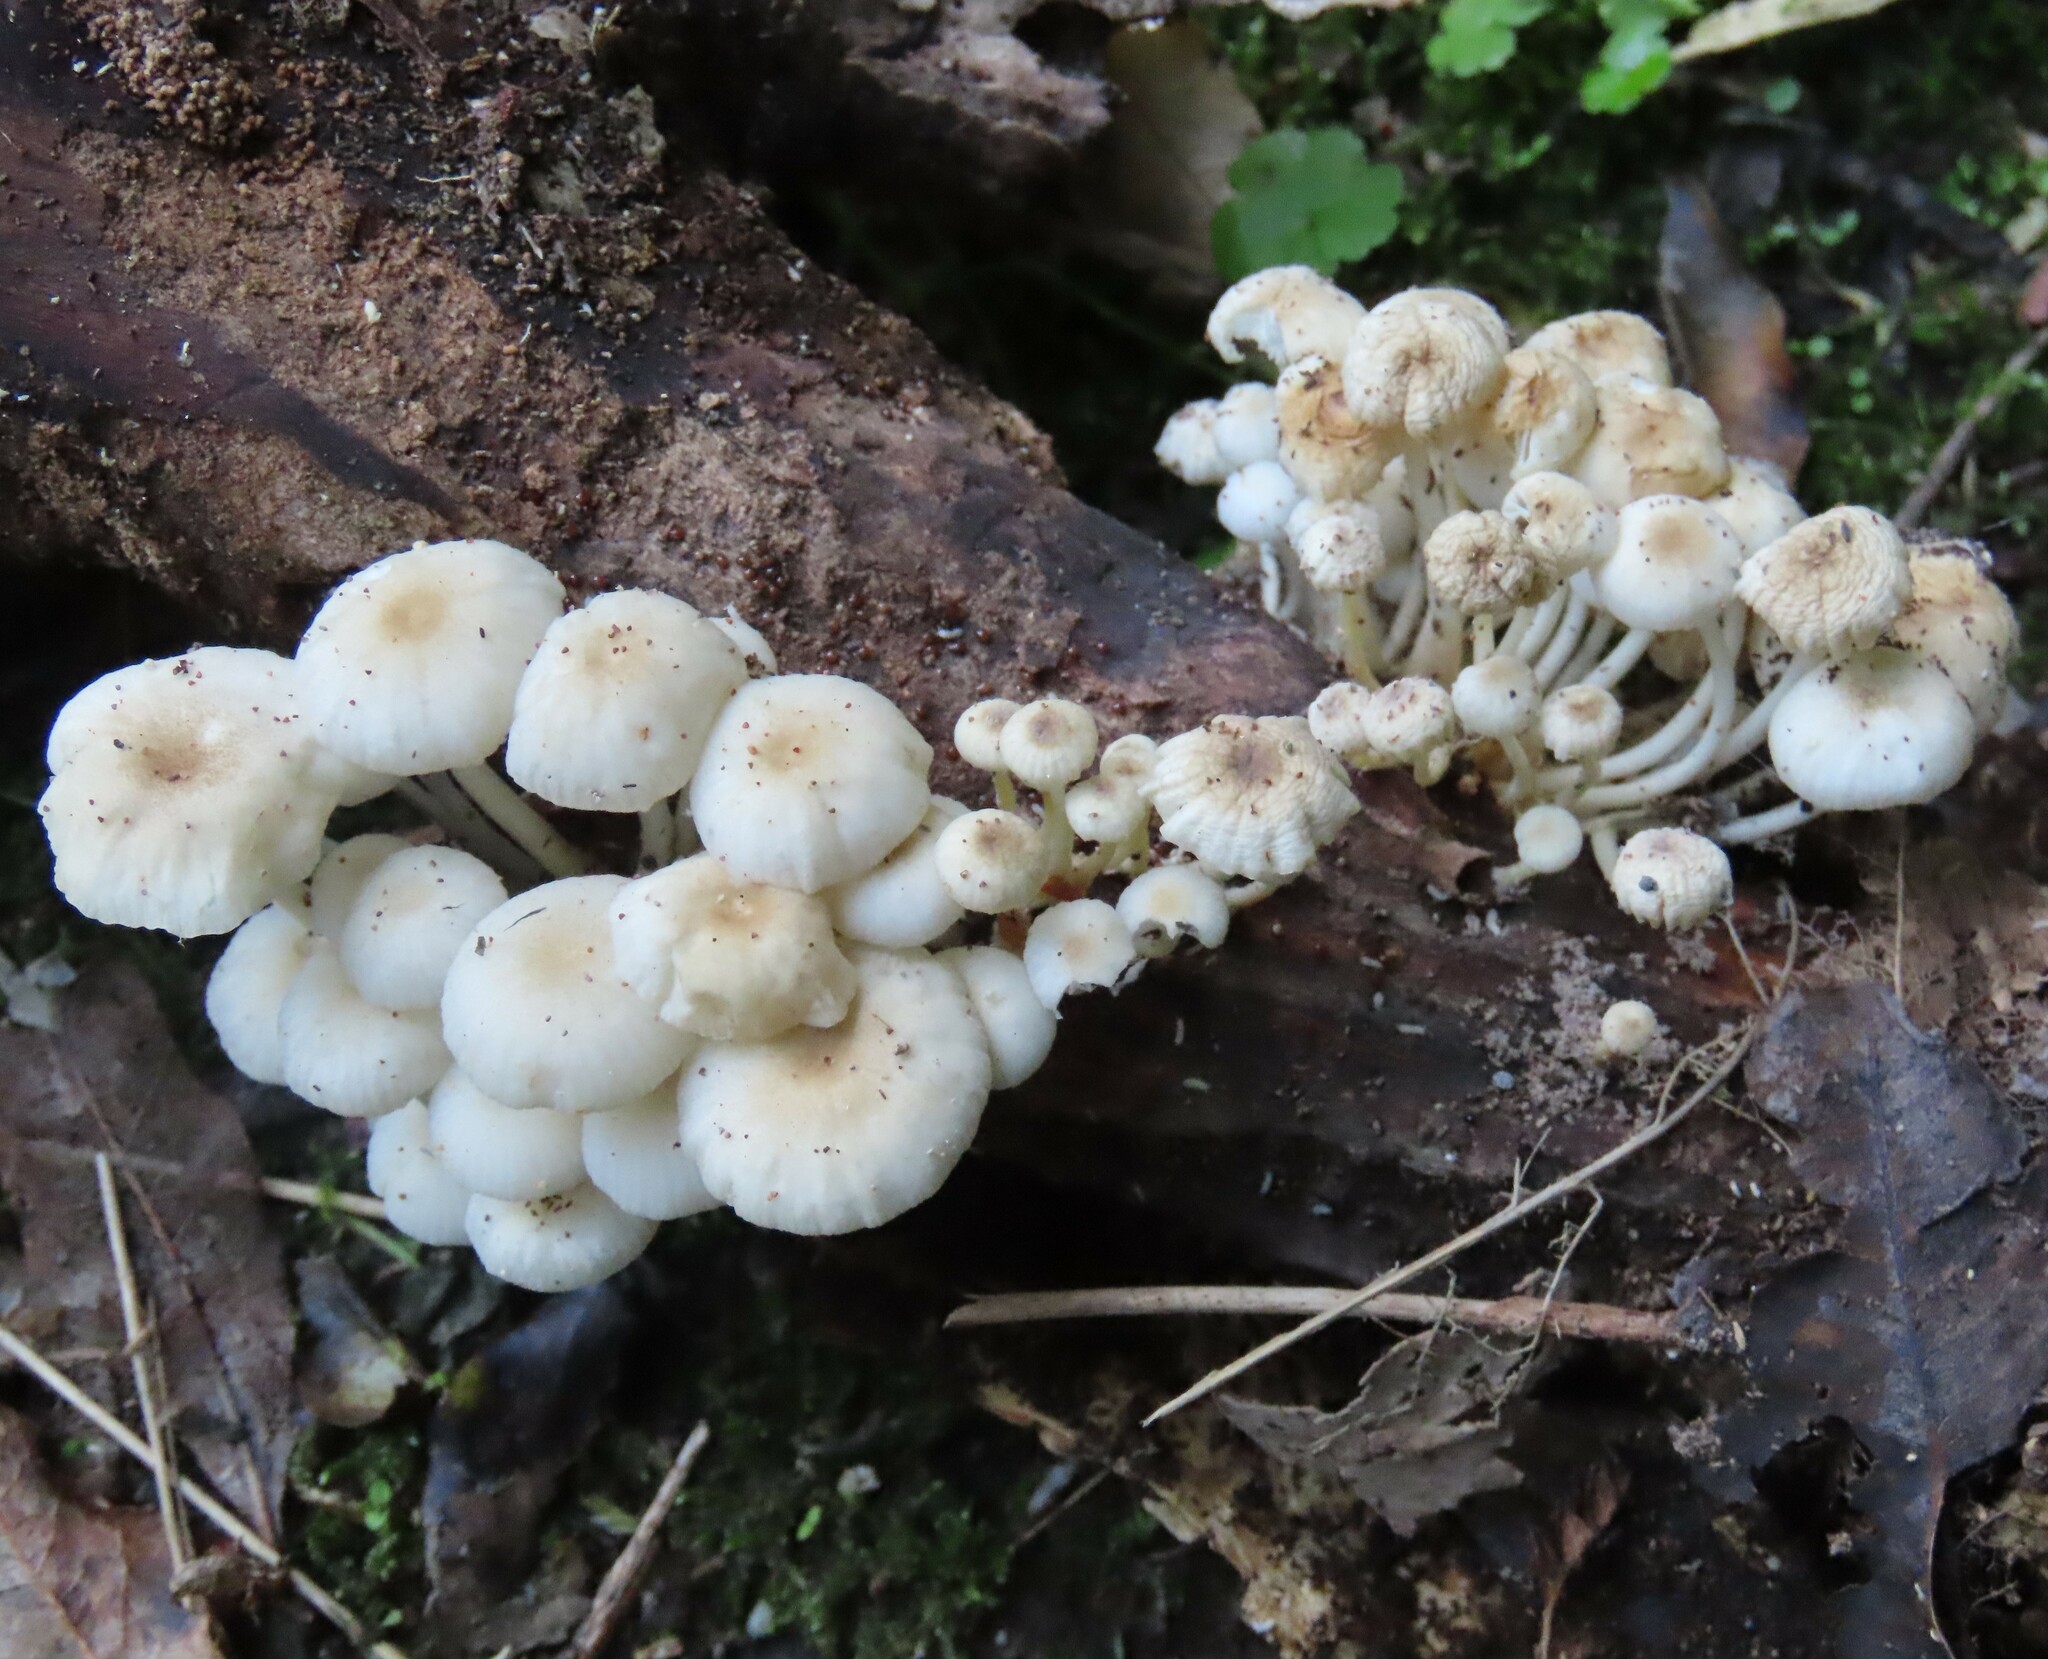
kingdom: Fungi
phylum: Basidiomycota
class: Agaricomycetes
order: Agaricales
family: Mycenaceae
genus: Roridomyces
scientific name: Roridomyces austrororidus
